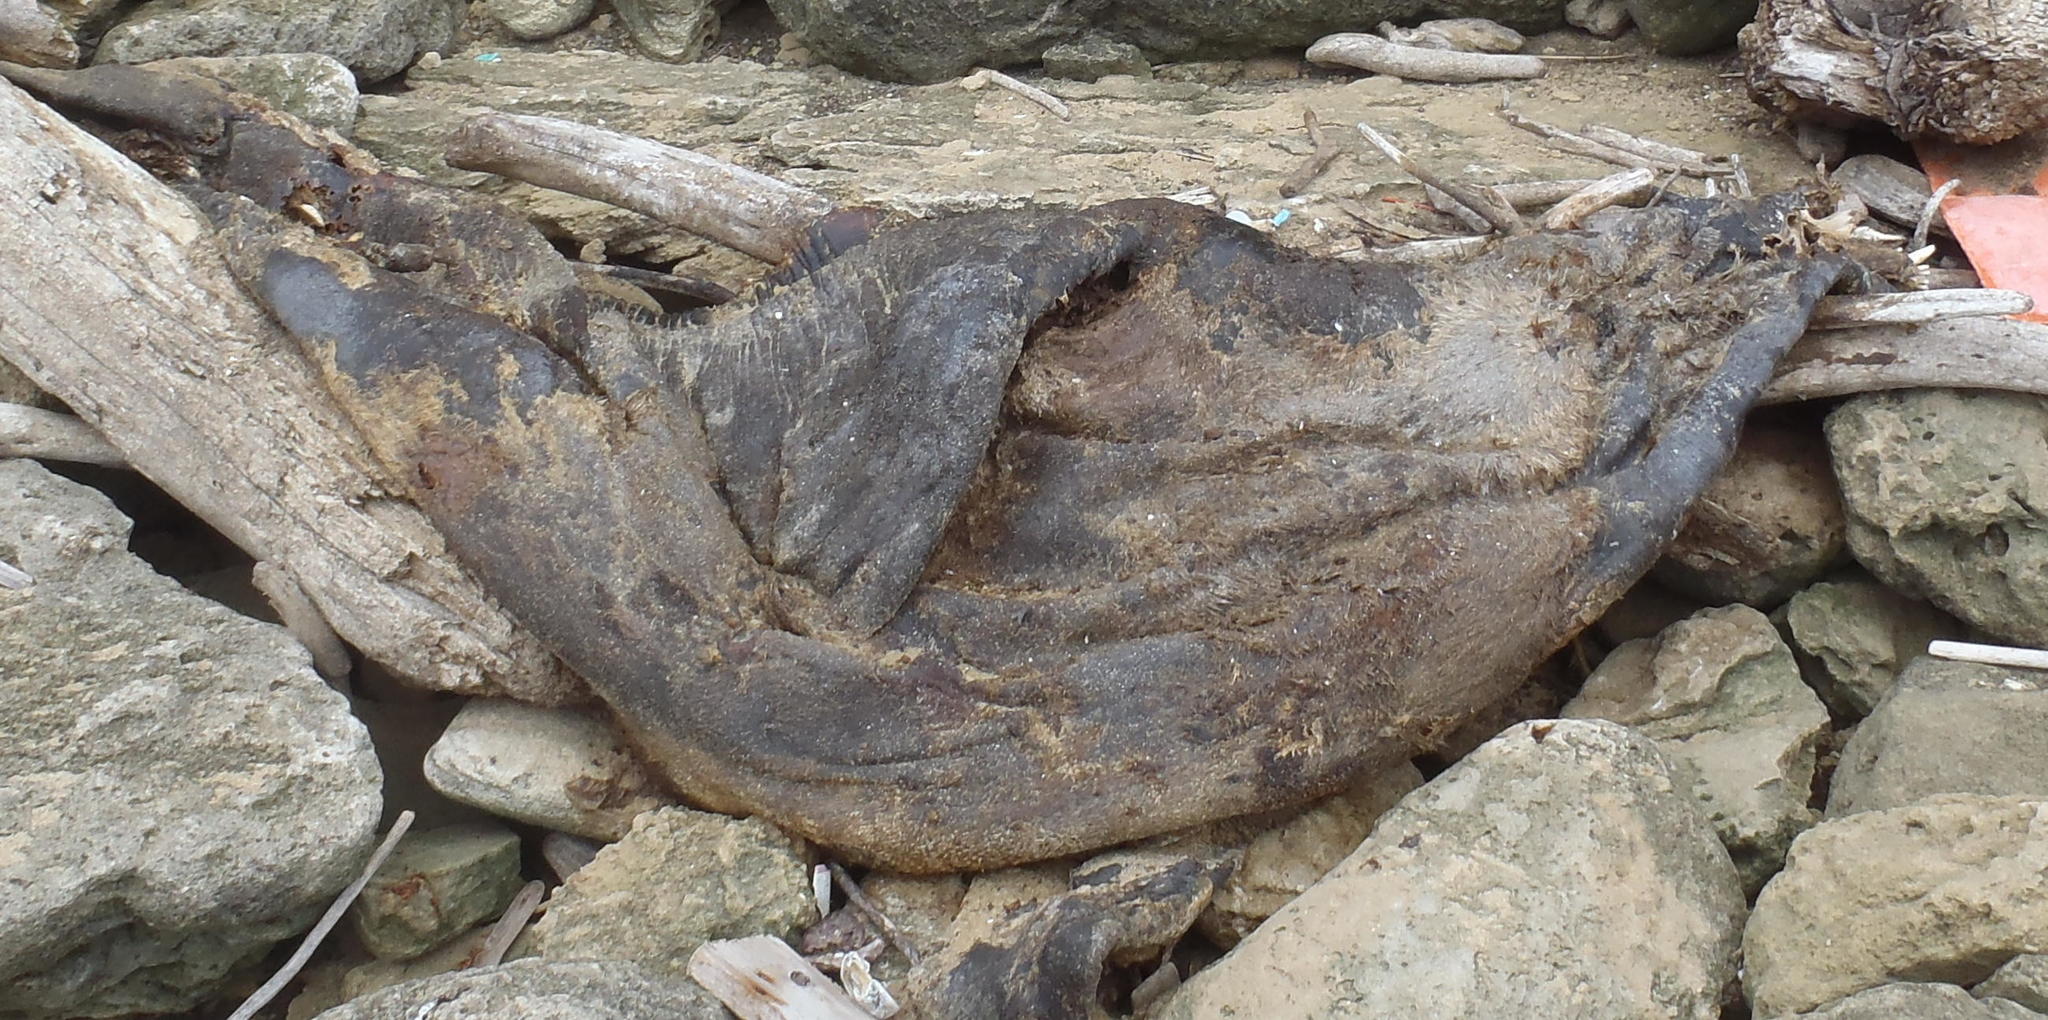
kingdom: Animalia
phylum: Chordata
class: Mammalia
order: Carnivora
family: Otariidae
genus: Arctocephalus
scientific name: Arctocephalus pusillus
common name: Brown fur seal
